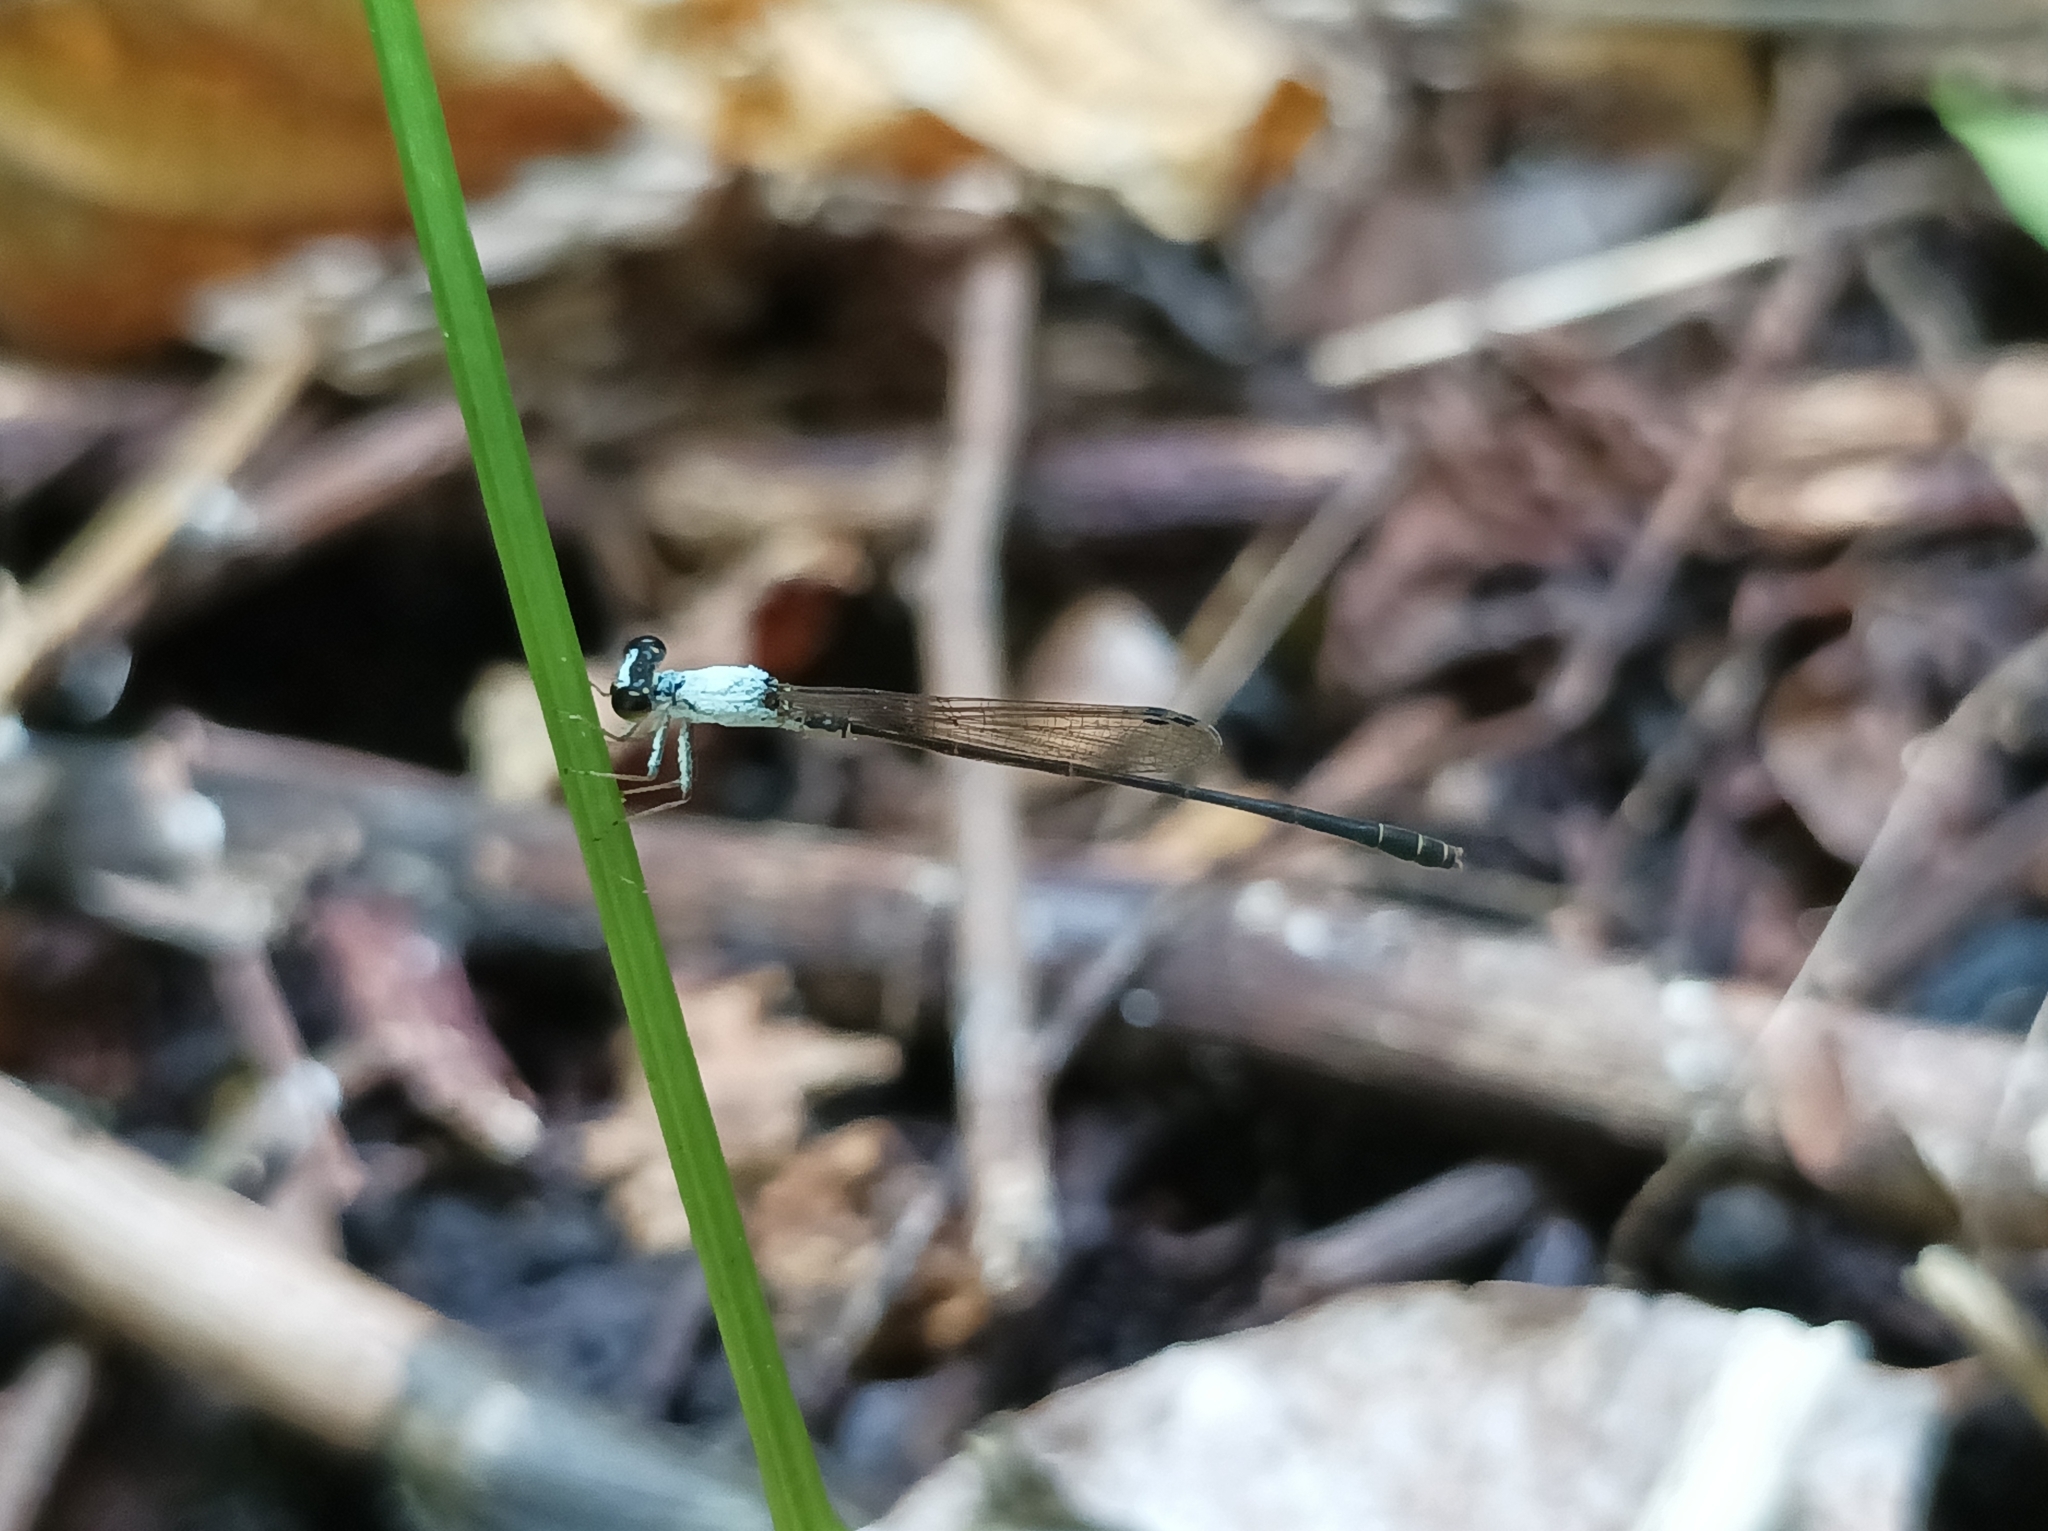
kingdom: Animalia
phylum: Arthropoda
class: Insecta
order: Odonata
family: Coenagrionidae
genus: Agriocnemis
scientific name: Agriocnemis femina
